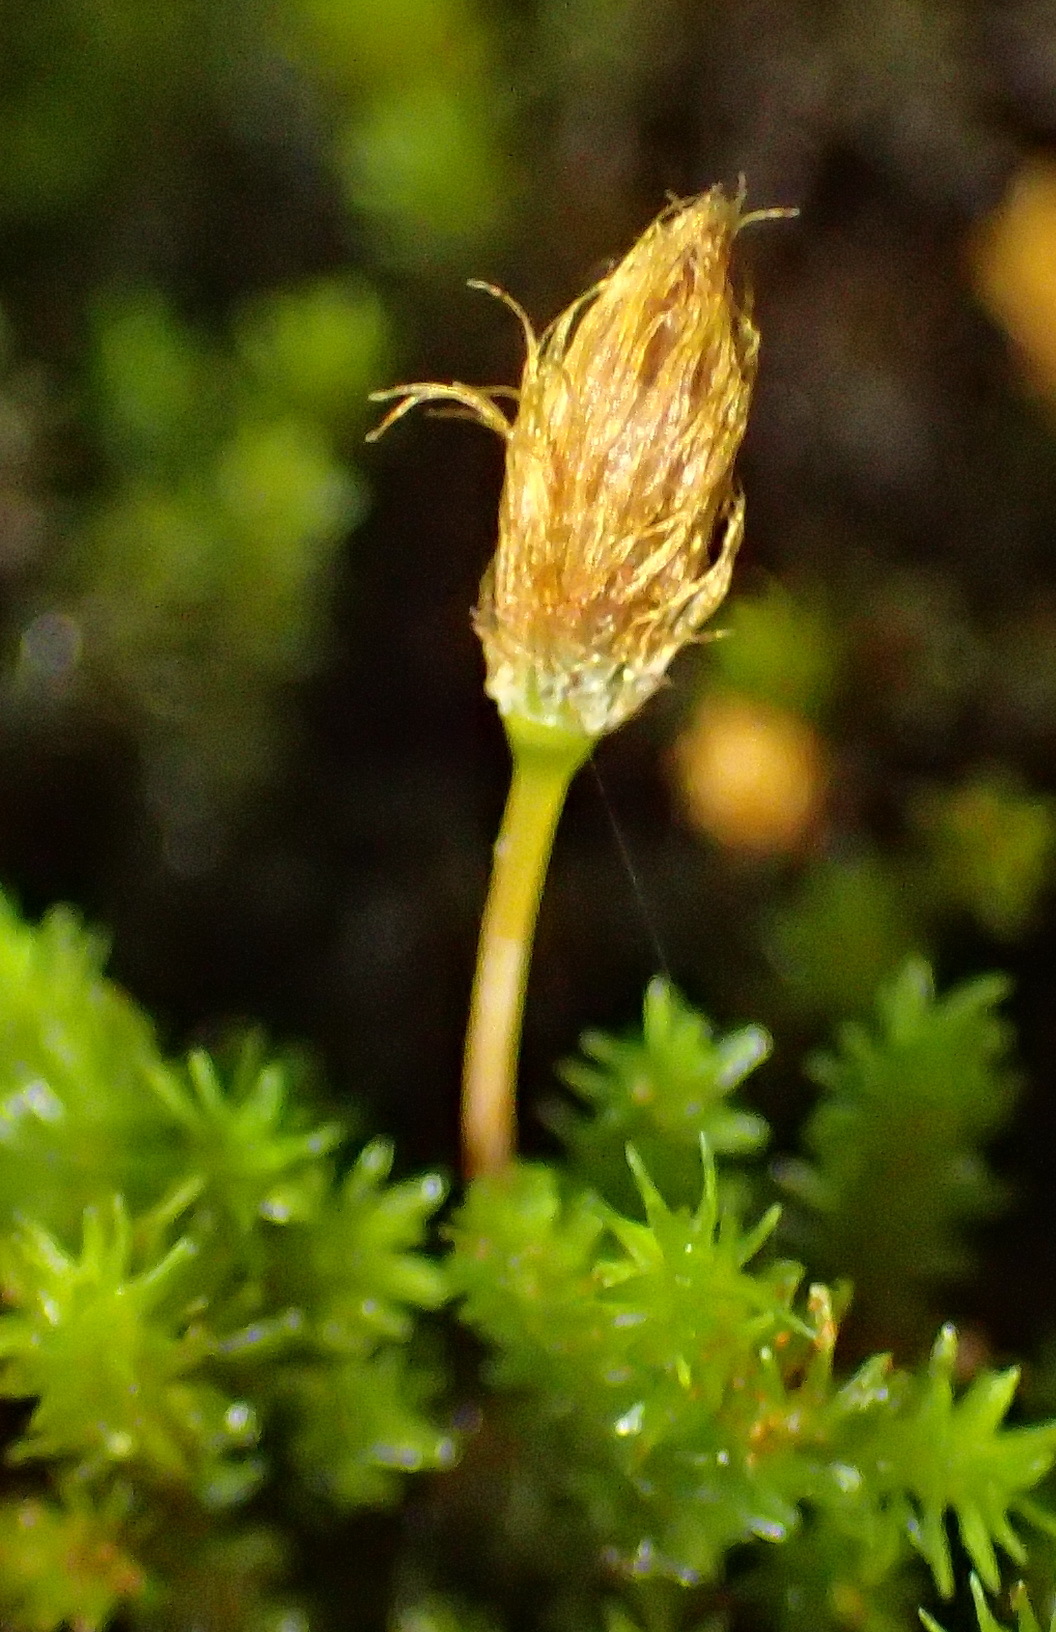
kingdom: Plantae
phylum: Bryophyta
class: Bryopsida
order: Orthotrichales
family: Orthotrichaceae
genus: Macrocoma
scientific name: Macrocoma lycopodioides
